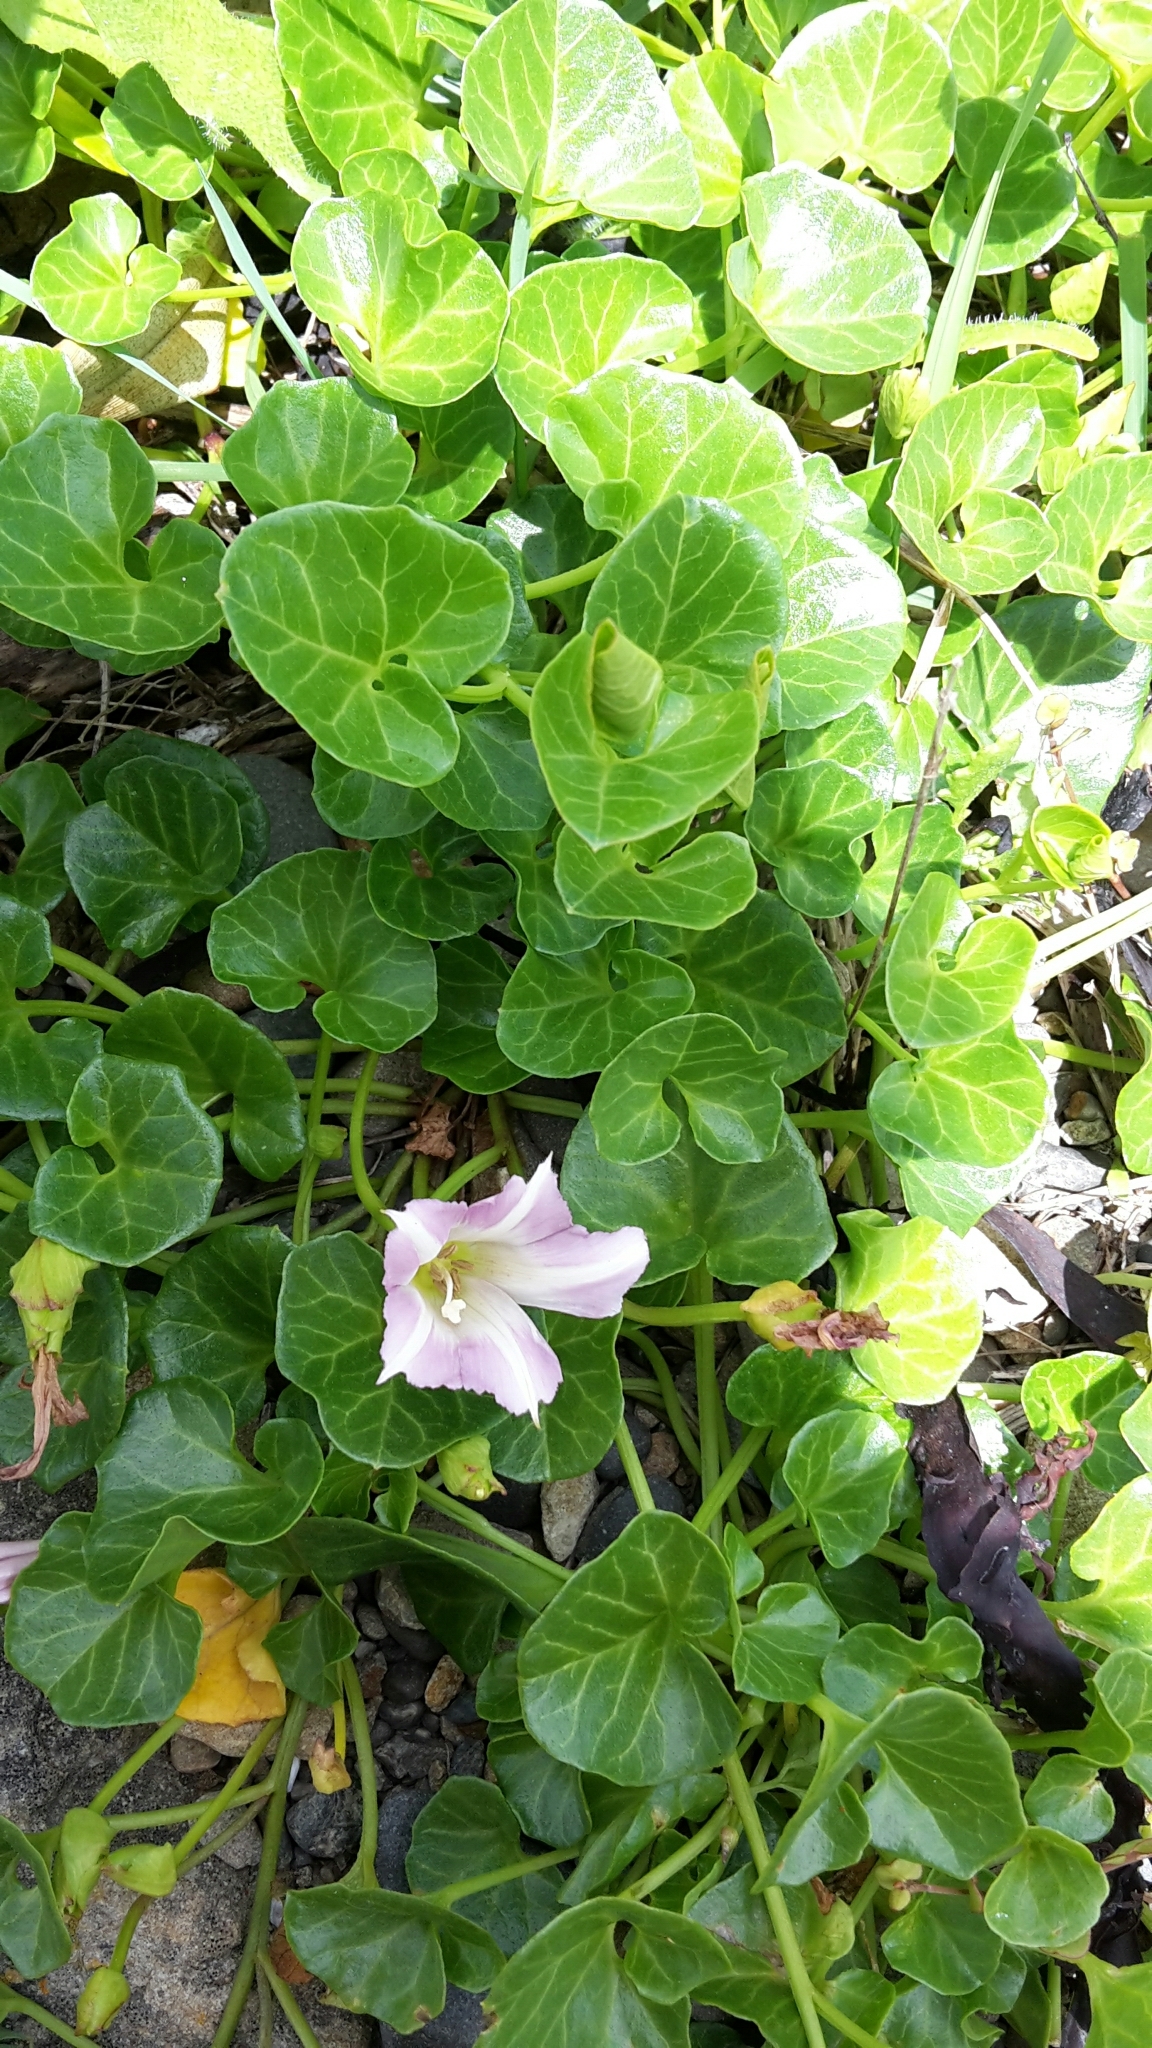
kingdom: Plantae
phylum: Tracheophyta
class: Magnoliopsida
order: Solanales
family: Convolvulaceae
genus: Calystegia
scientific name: Calystegia soldanella
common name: Sea bindweed
